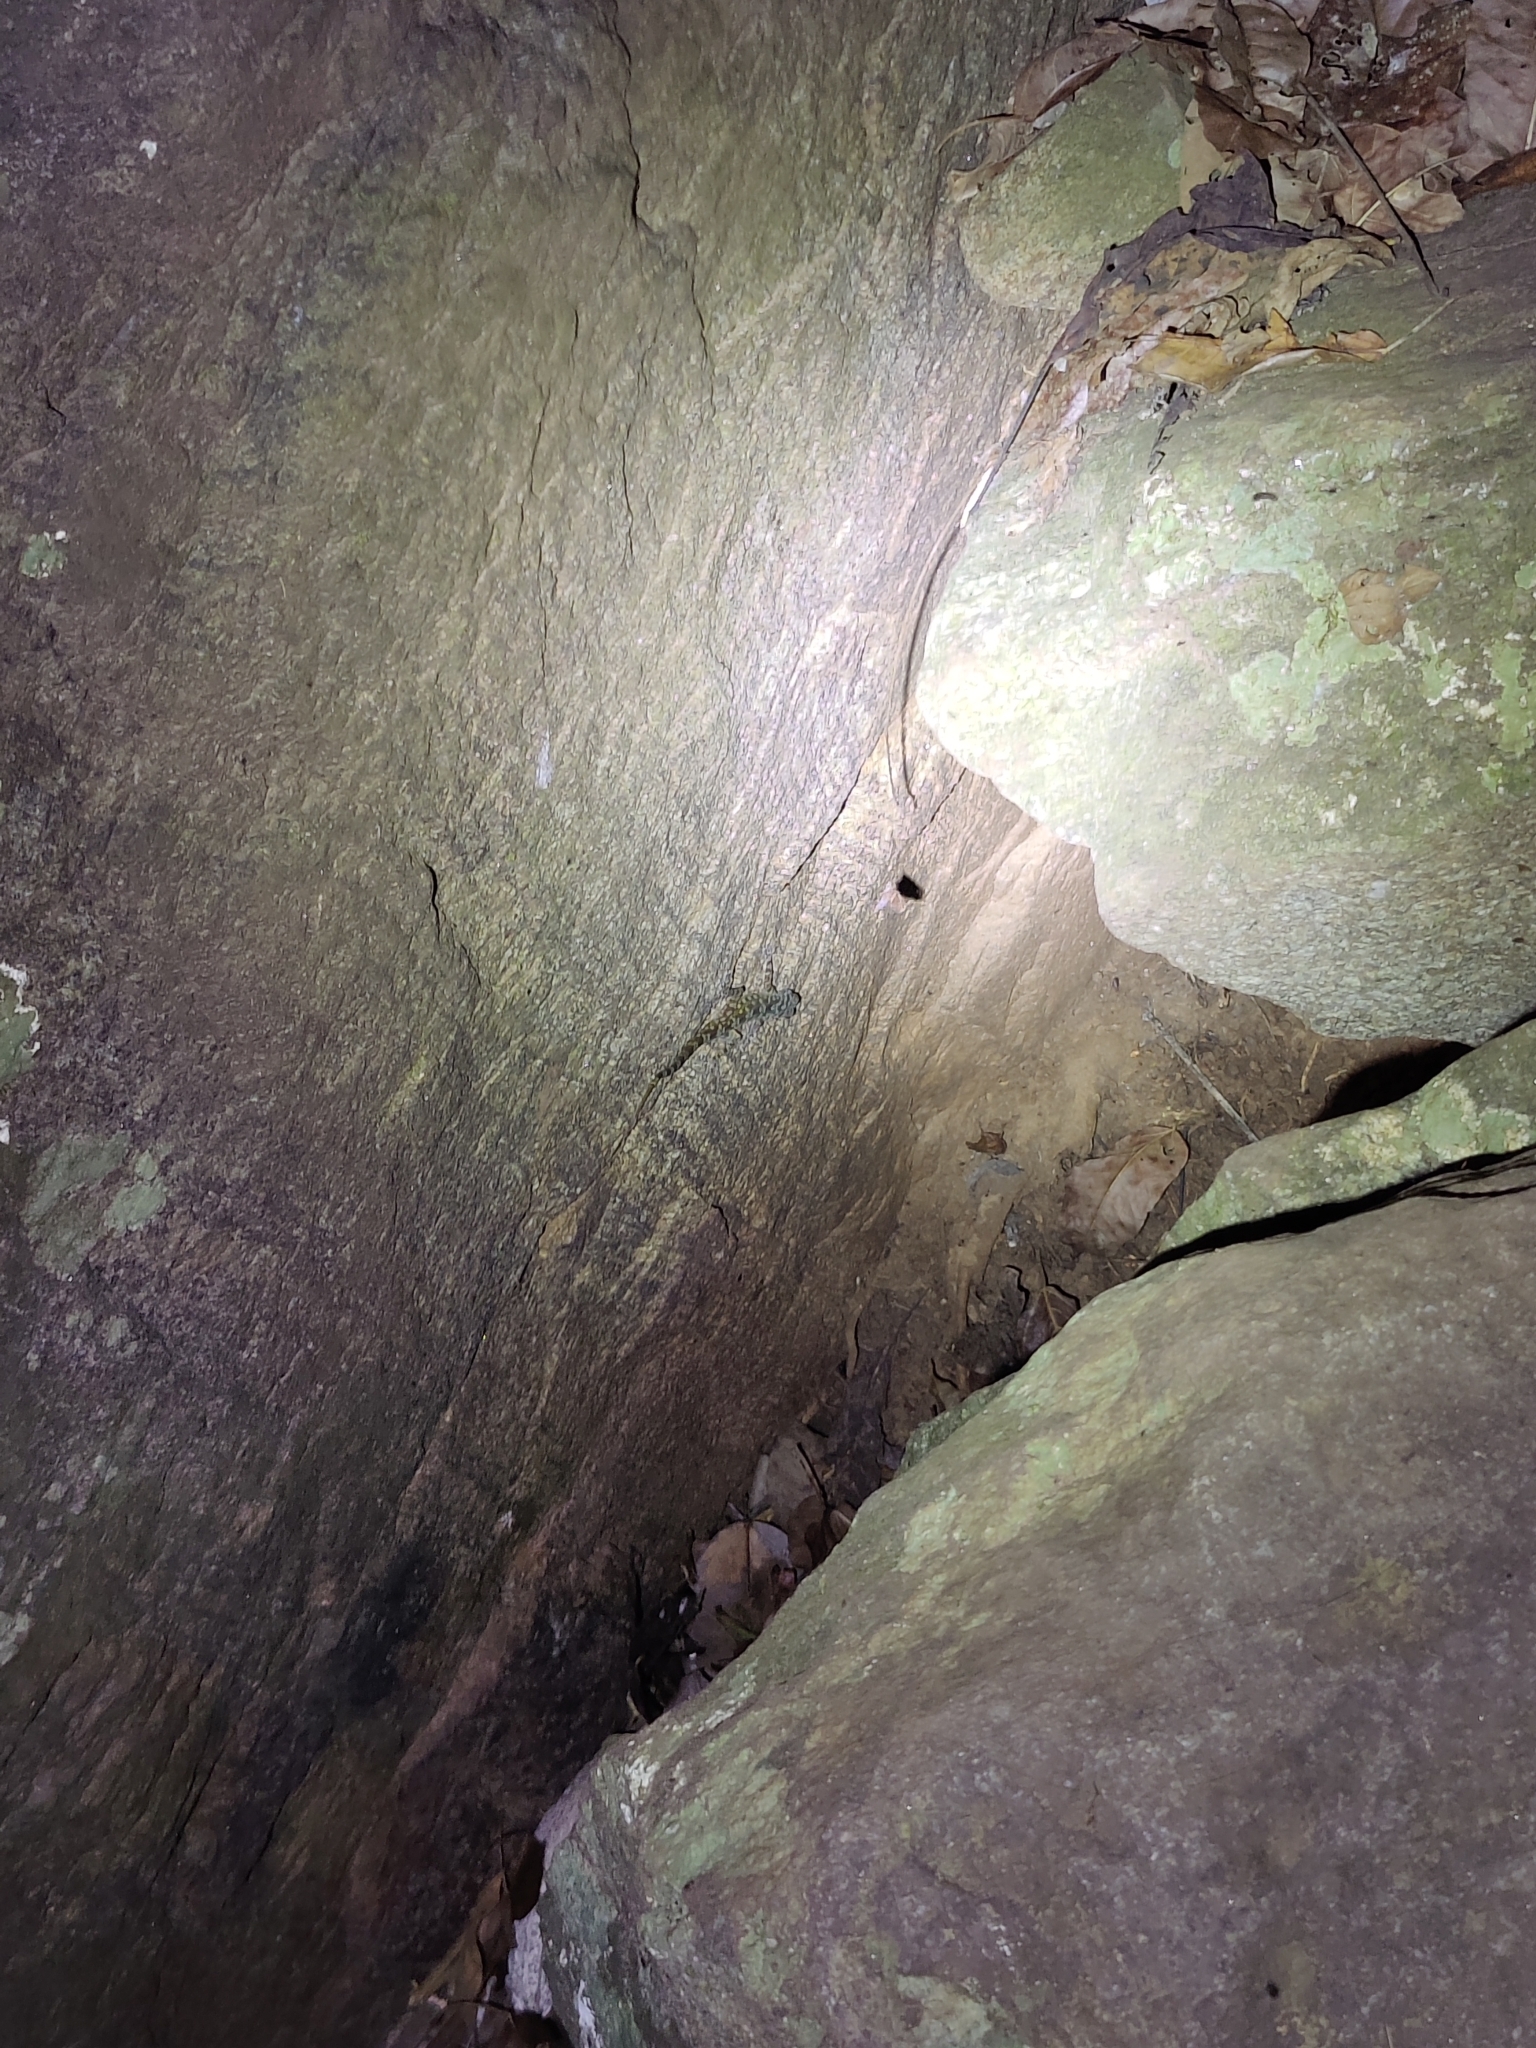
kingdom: Animalia
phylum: Chordata
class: Squamata
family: Gekkonidae
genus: Calodactylodes
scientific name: Calodactylodes aureus
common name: Indian golden gecko
